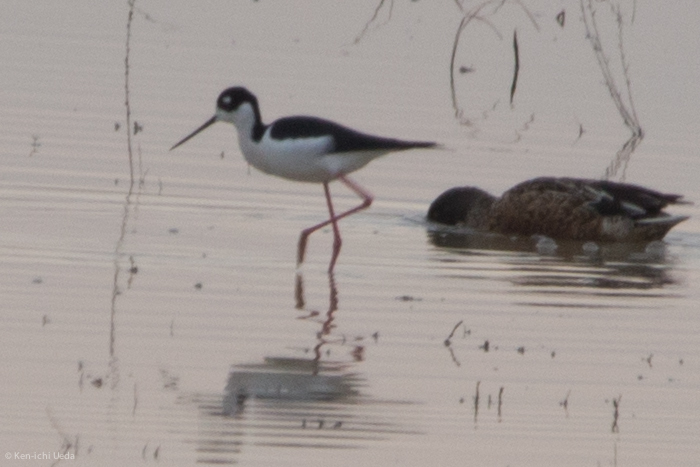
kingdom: Animalia
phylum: Chordata
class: Aves
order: Charadriiformes
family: Recurvirostridae
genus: Himantopus
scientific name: Himantopus mexicanus
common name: Black-necked stilt
